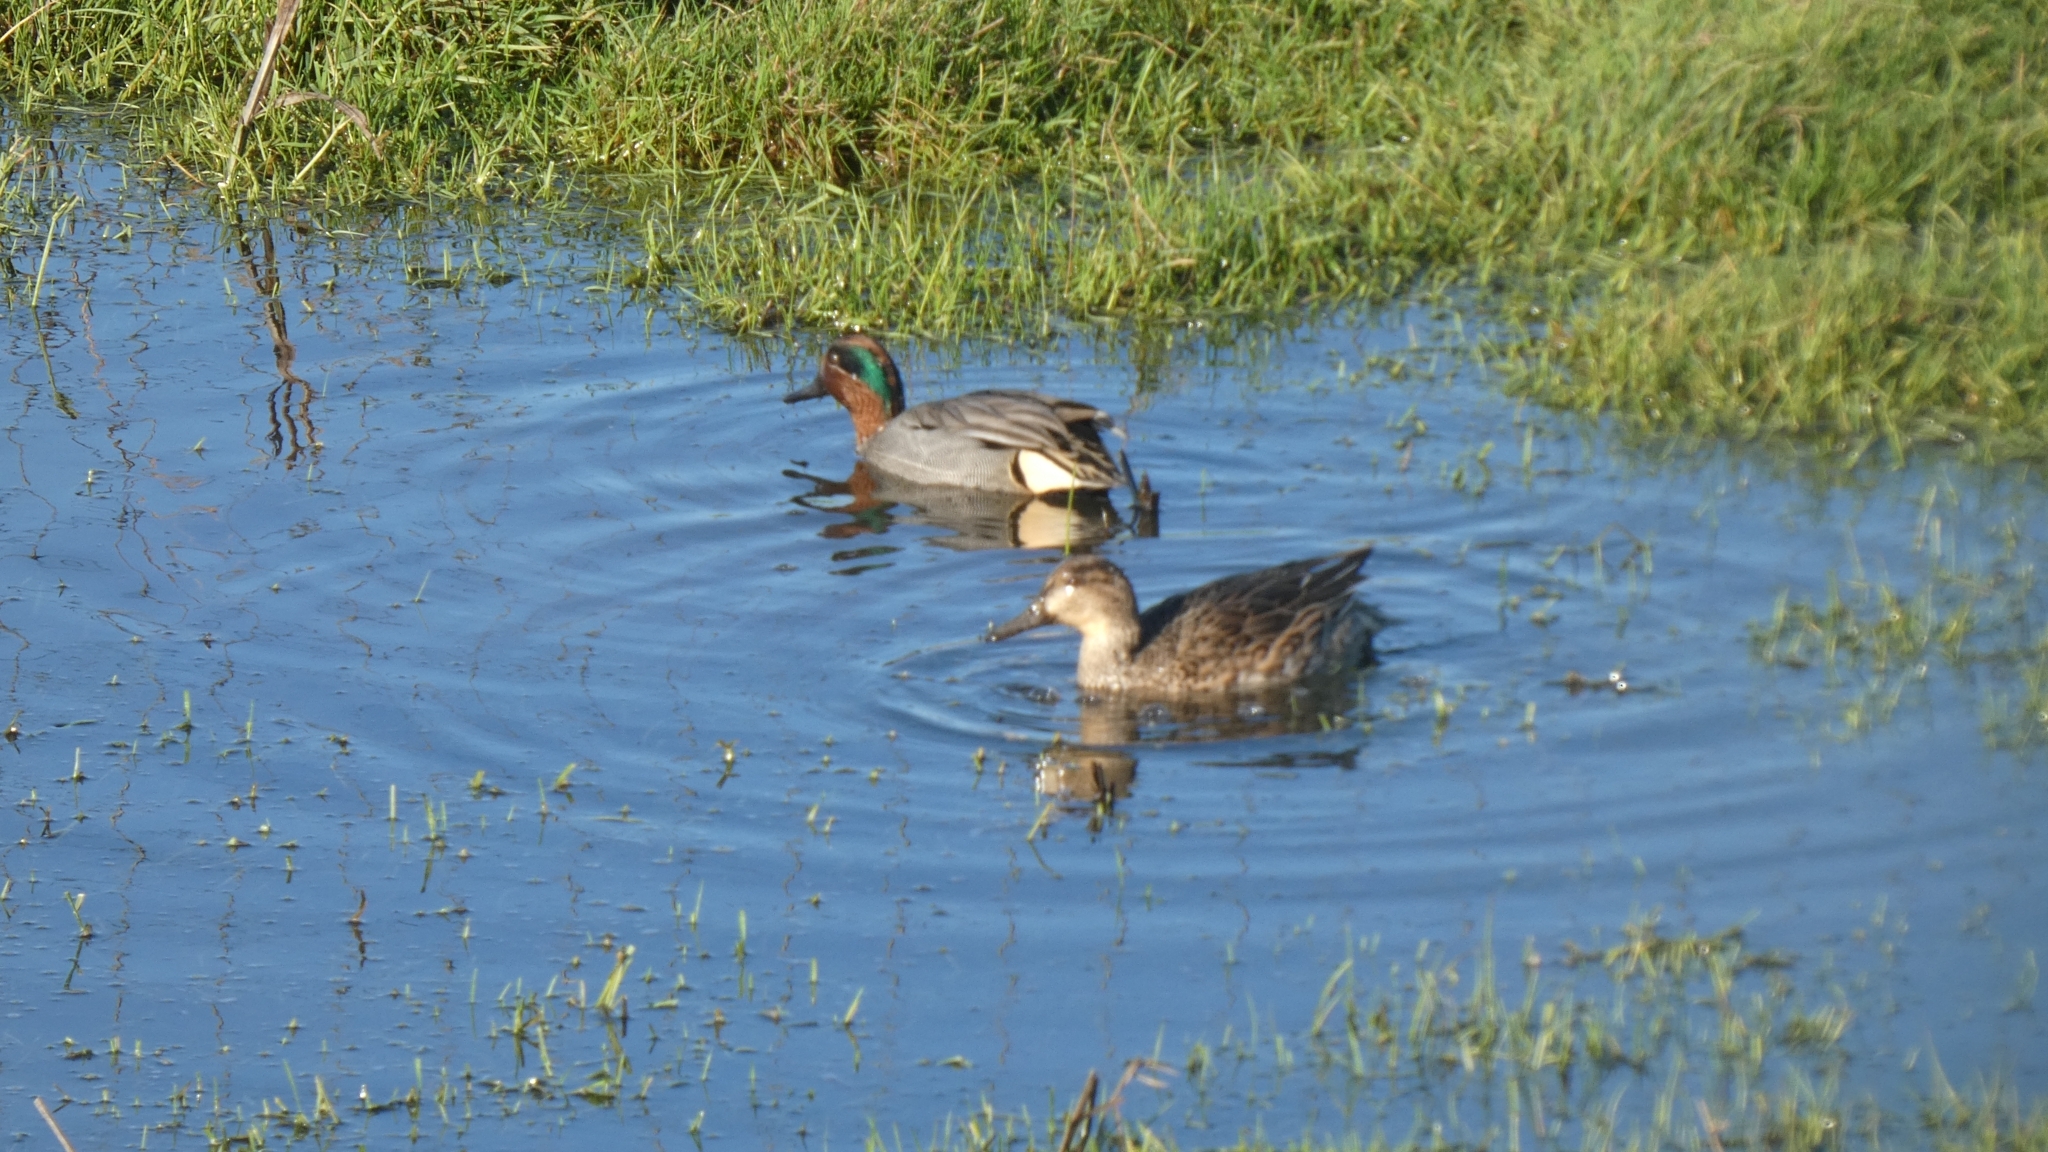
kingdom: Animalia
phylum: Chordata
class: Aves
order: Anseriformes
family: Anatidae
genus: Anas
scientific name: Anas crecca
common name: Eurasian teal
